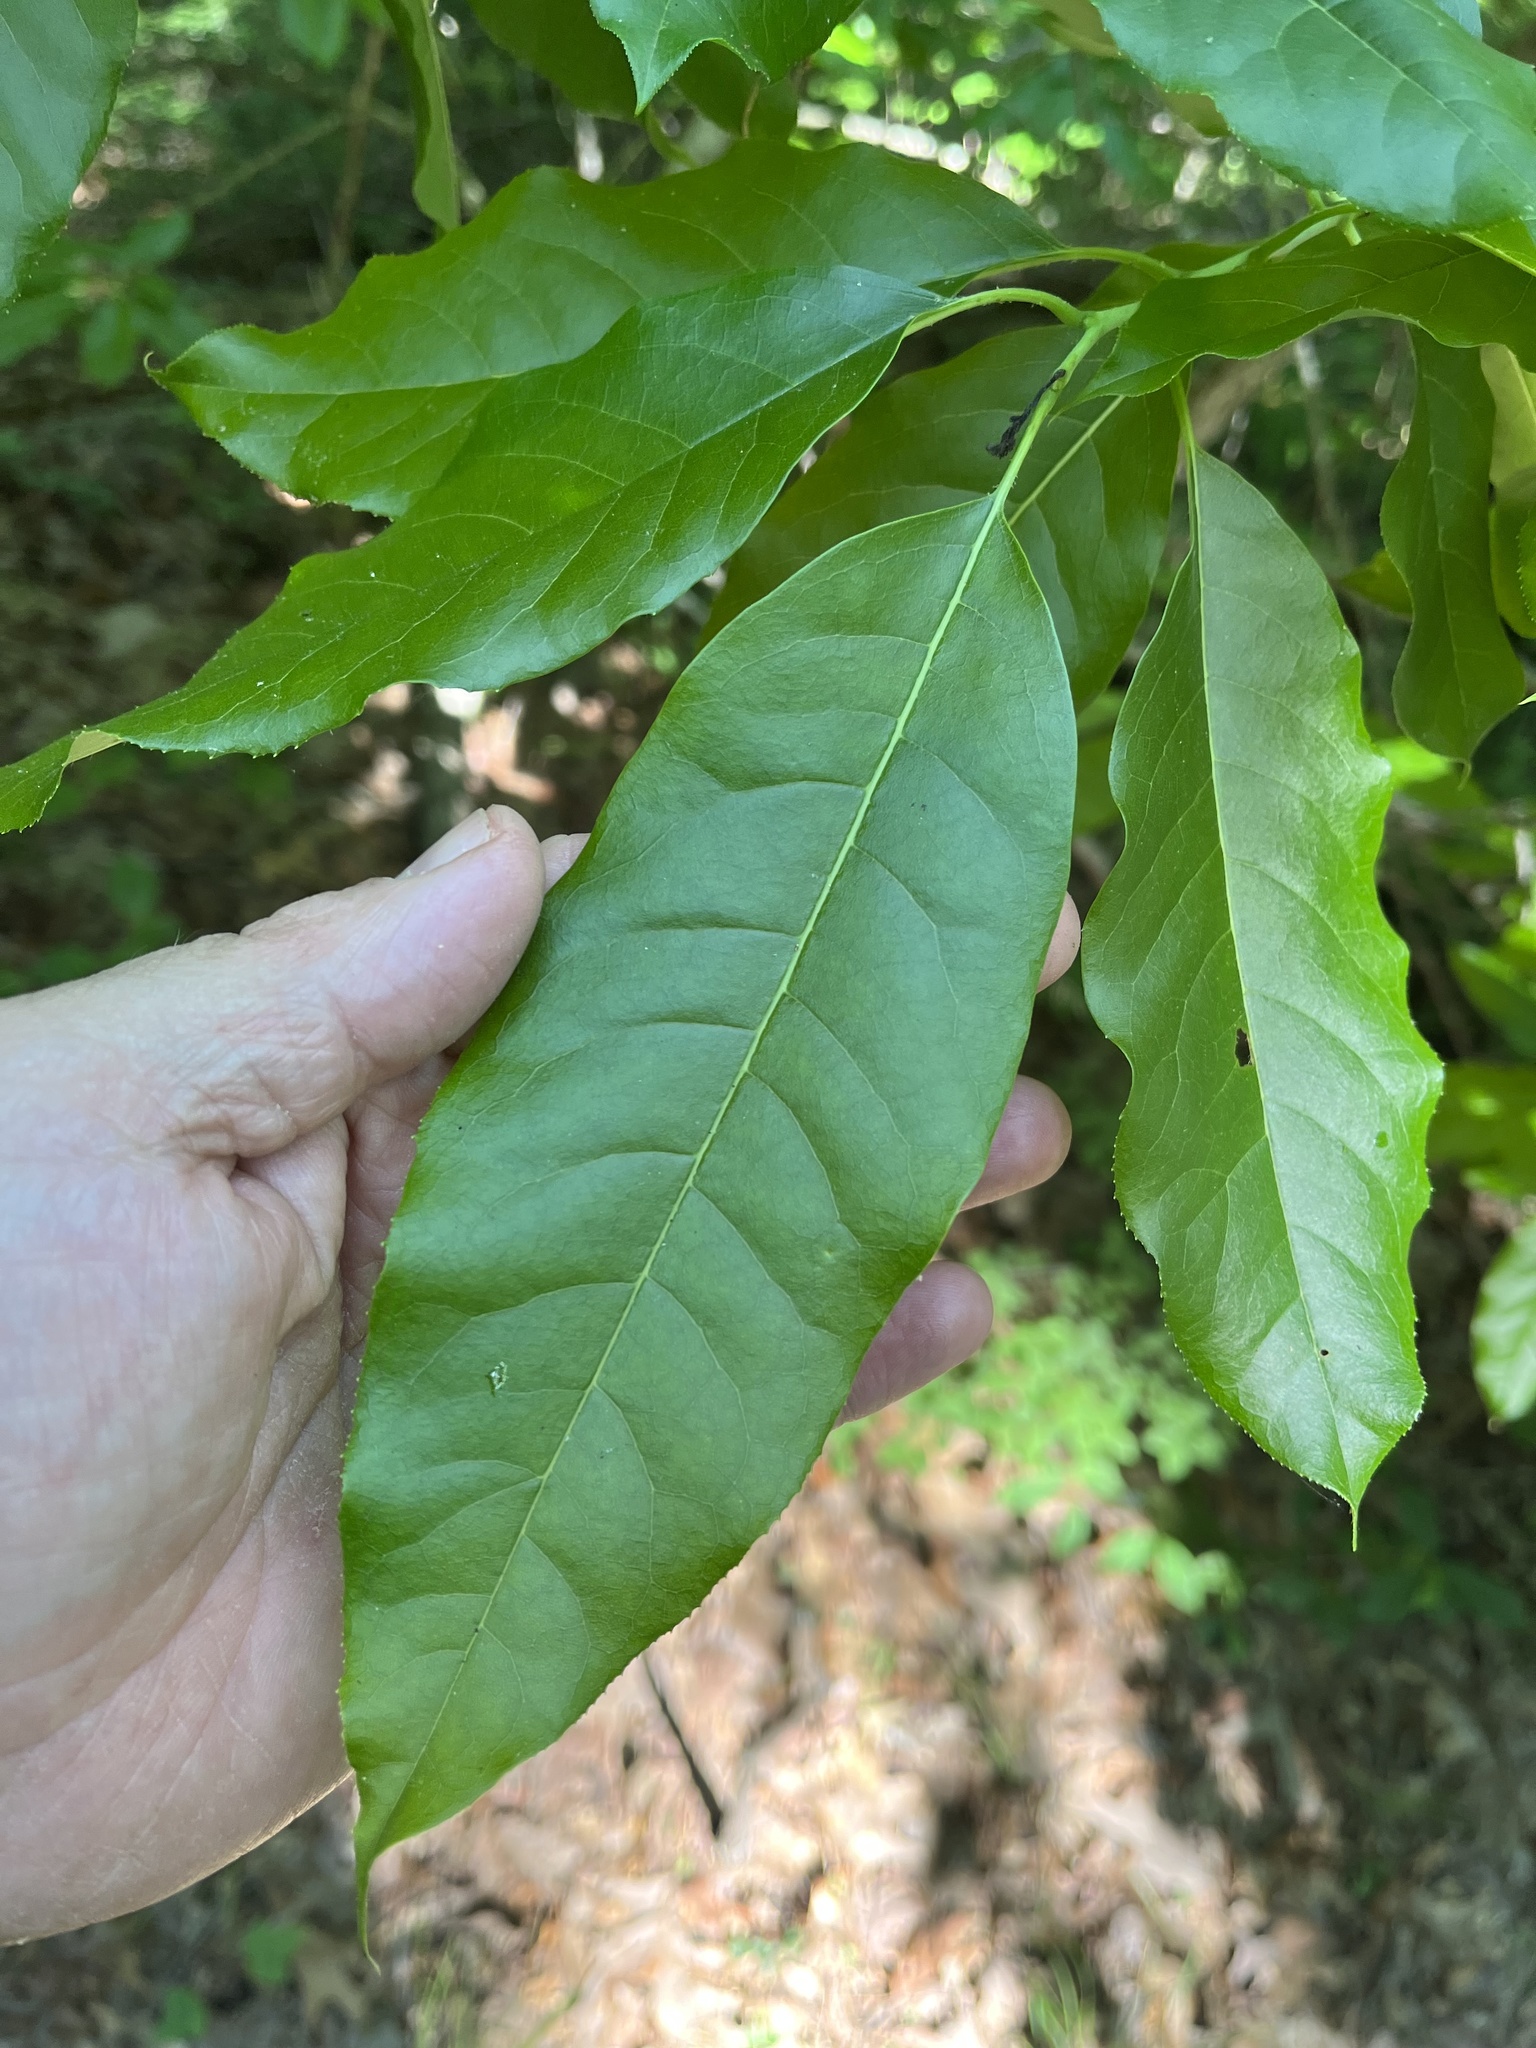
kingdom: Plantae
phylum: Tracheophyta
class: Magnoliopsida
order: Ericales
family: Ericaceae
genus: Oxydendrum
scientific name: Oxydendrum arboreum
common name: Sourwood
